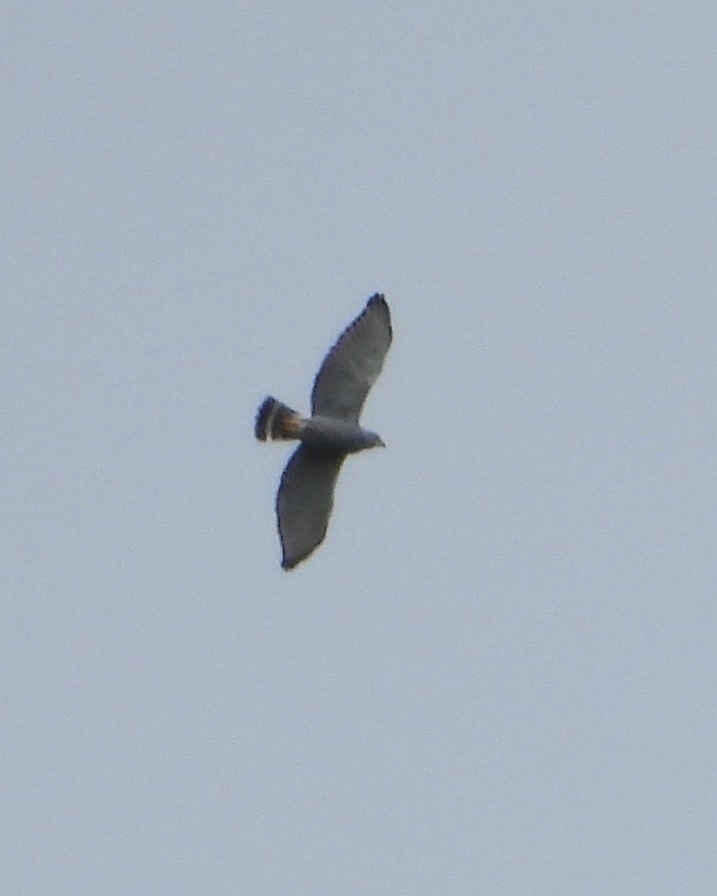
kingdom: Animalia
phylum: Chordata
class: Aves
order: Accipitriformes
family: Accipitridae
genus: Buteo
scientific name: Buteo nitidus
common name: Grey-lined hawk
